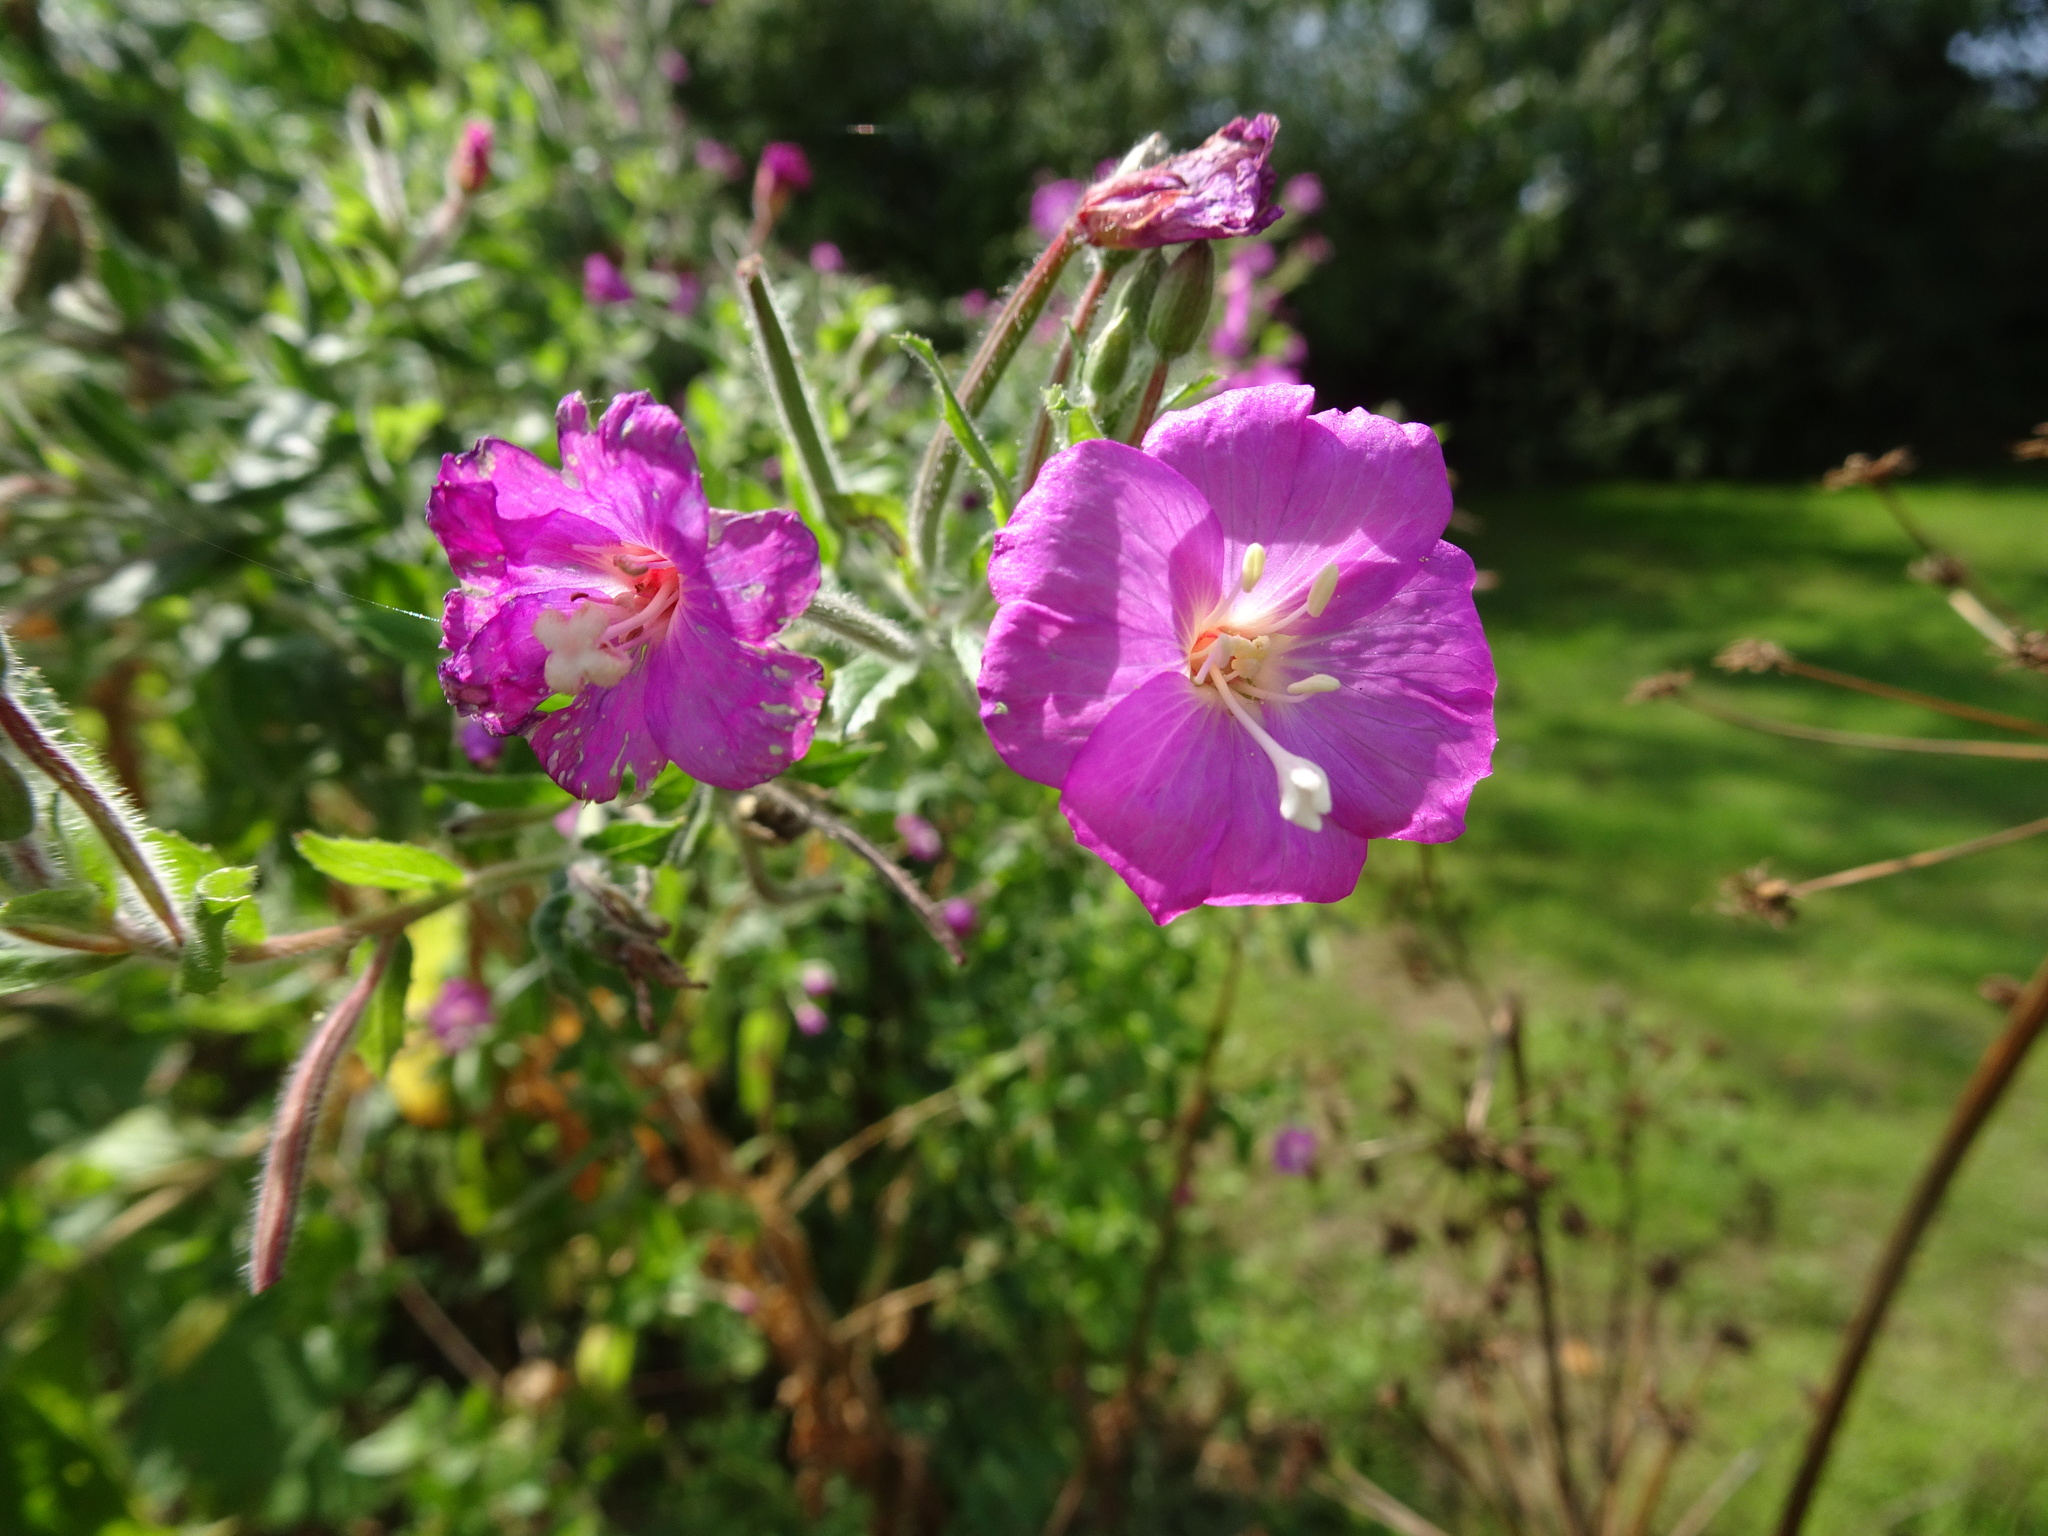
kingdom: Plantae
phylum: Tracheophyta
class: Magnoliopsida
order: Myrtales
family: Onagraceae
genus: Epilobium
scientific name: Epilobium hirsutum
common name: Great willowherb
